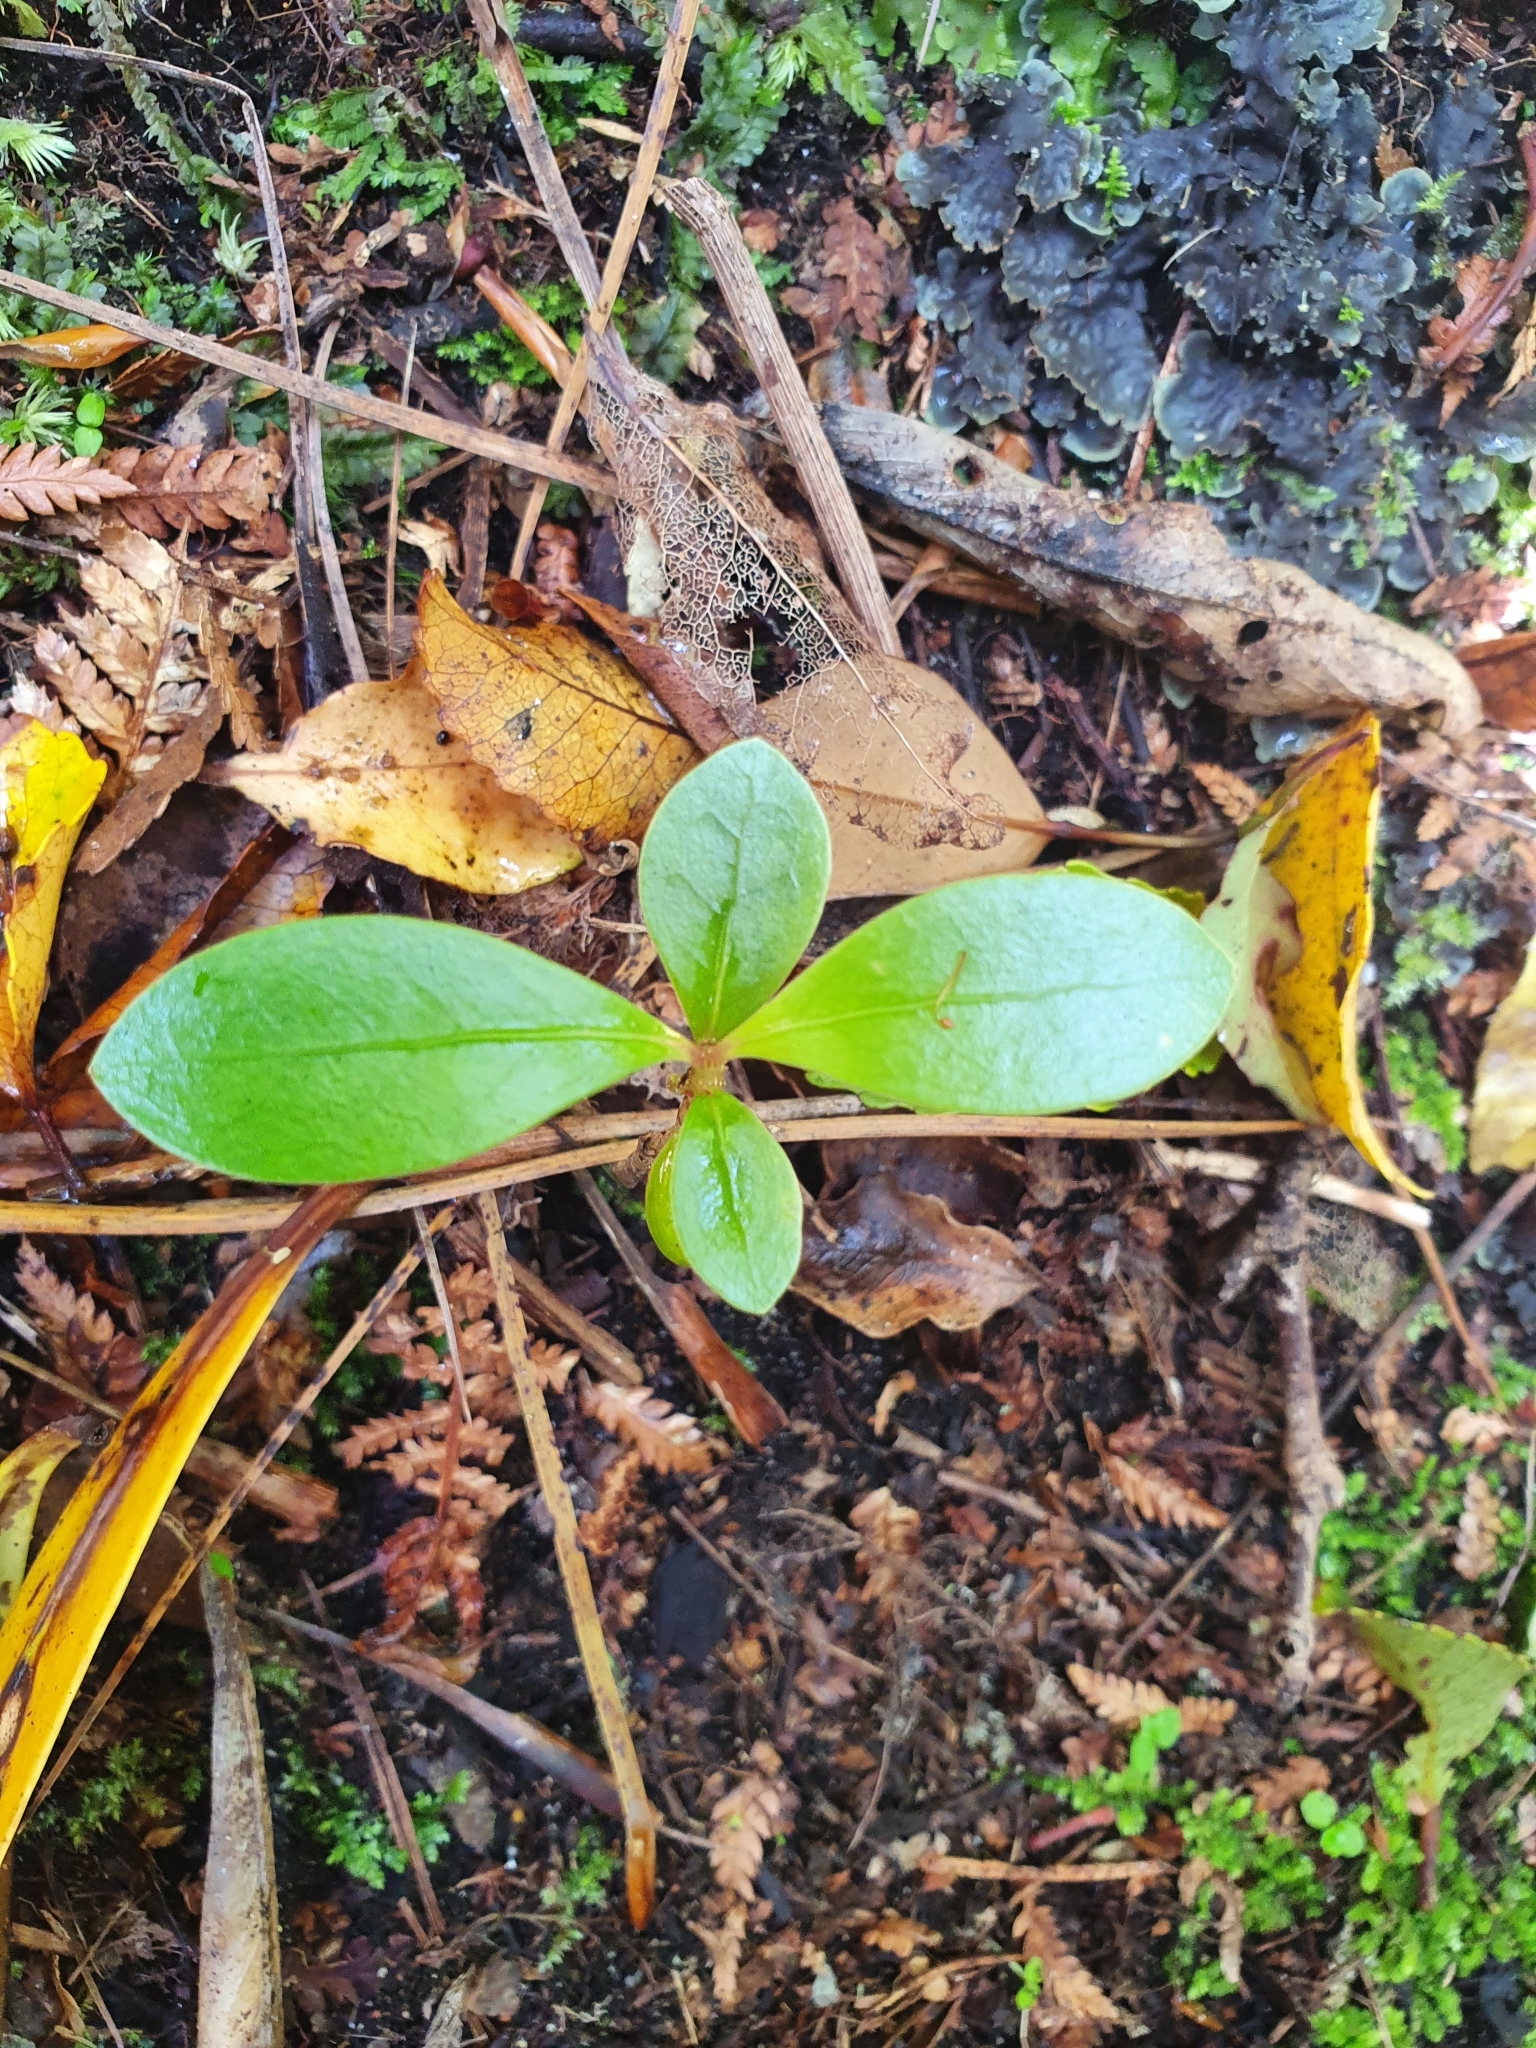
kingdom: Plantae
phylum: Tracheophyta
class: Magnoliopsida
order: Gentianales
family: Rubiaceae
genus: Coprosma
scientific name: Coprosma lucida
